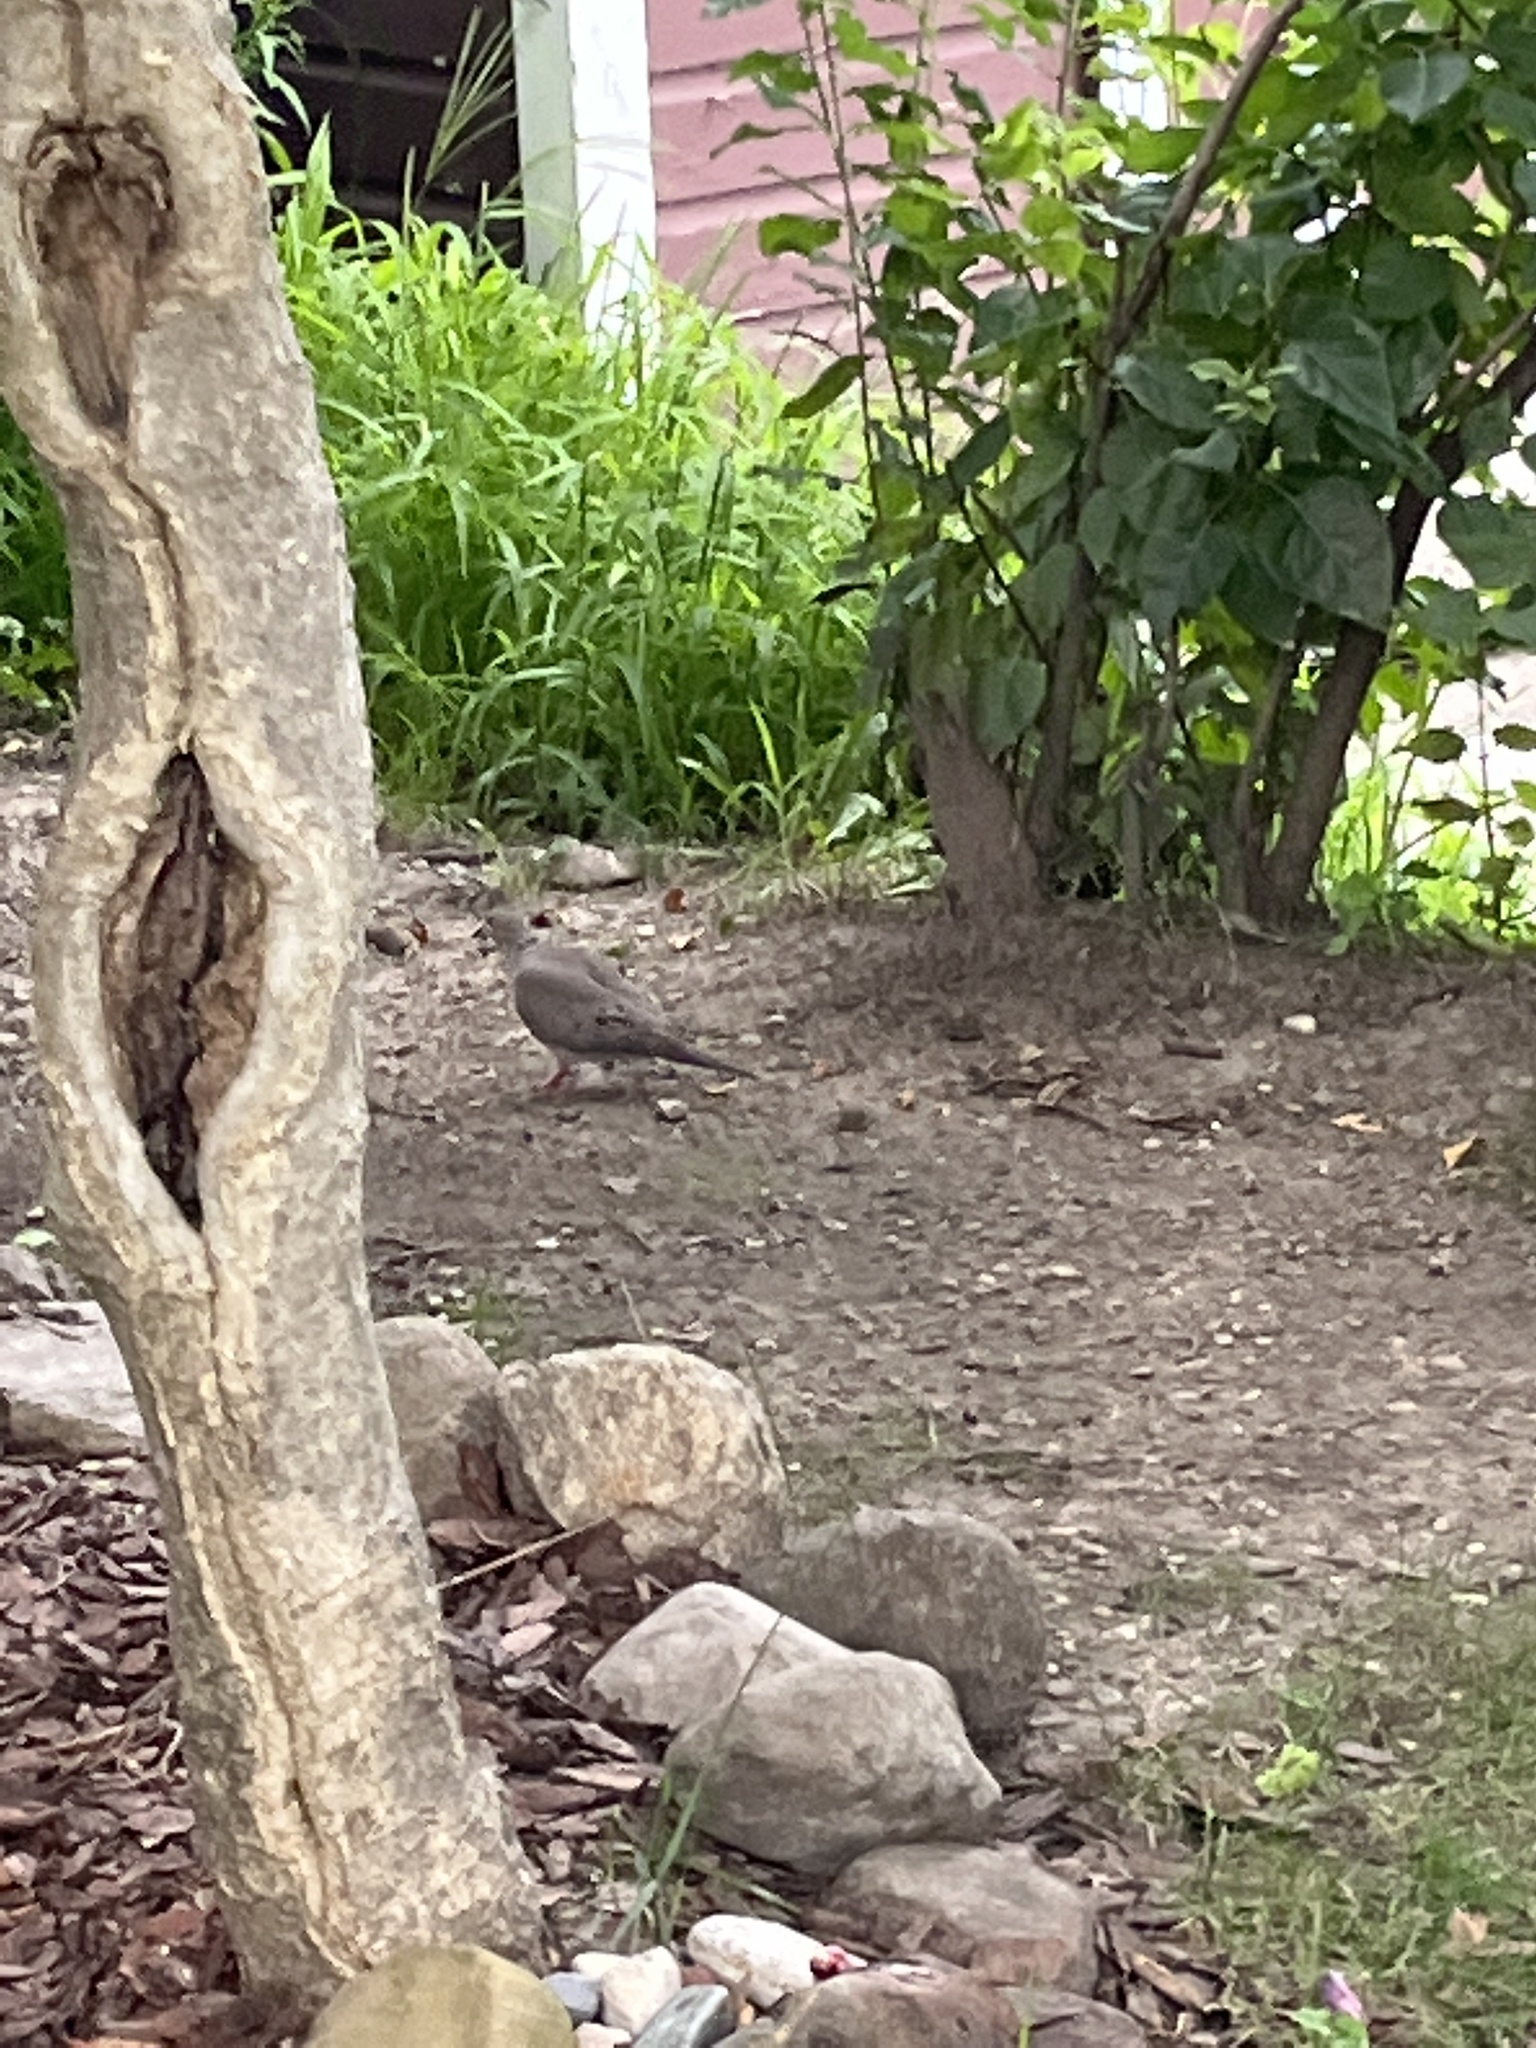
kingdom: Animalia
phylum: Chordata
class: Aves
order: Columbiformes
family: Columbidae
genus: Zenaida
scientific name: Zenaida macroura
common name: Mourning dove
